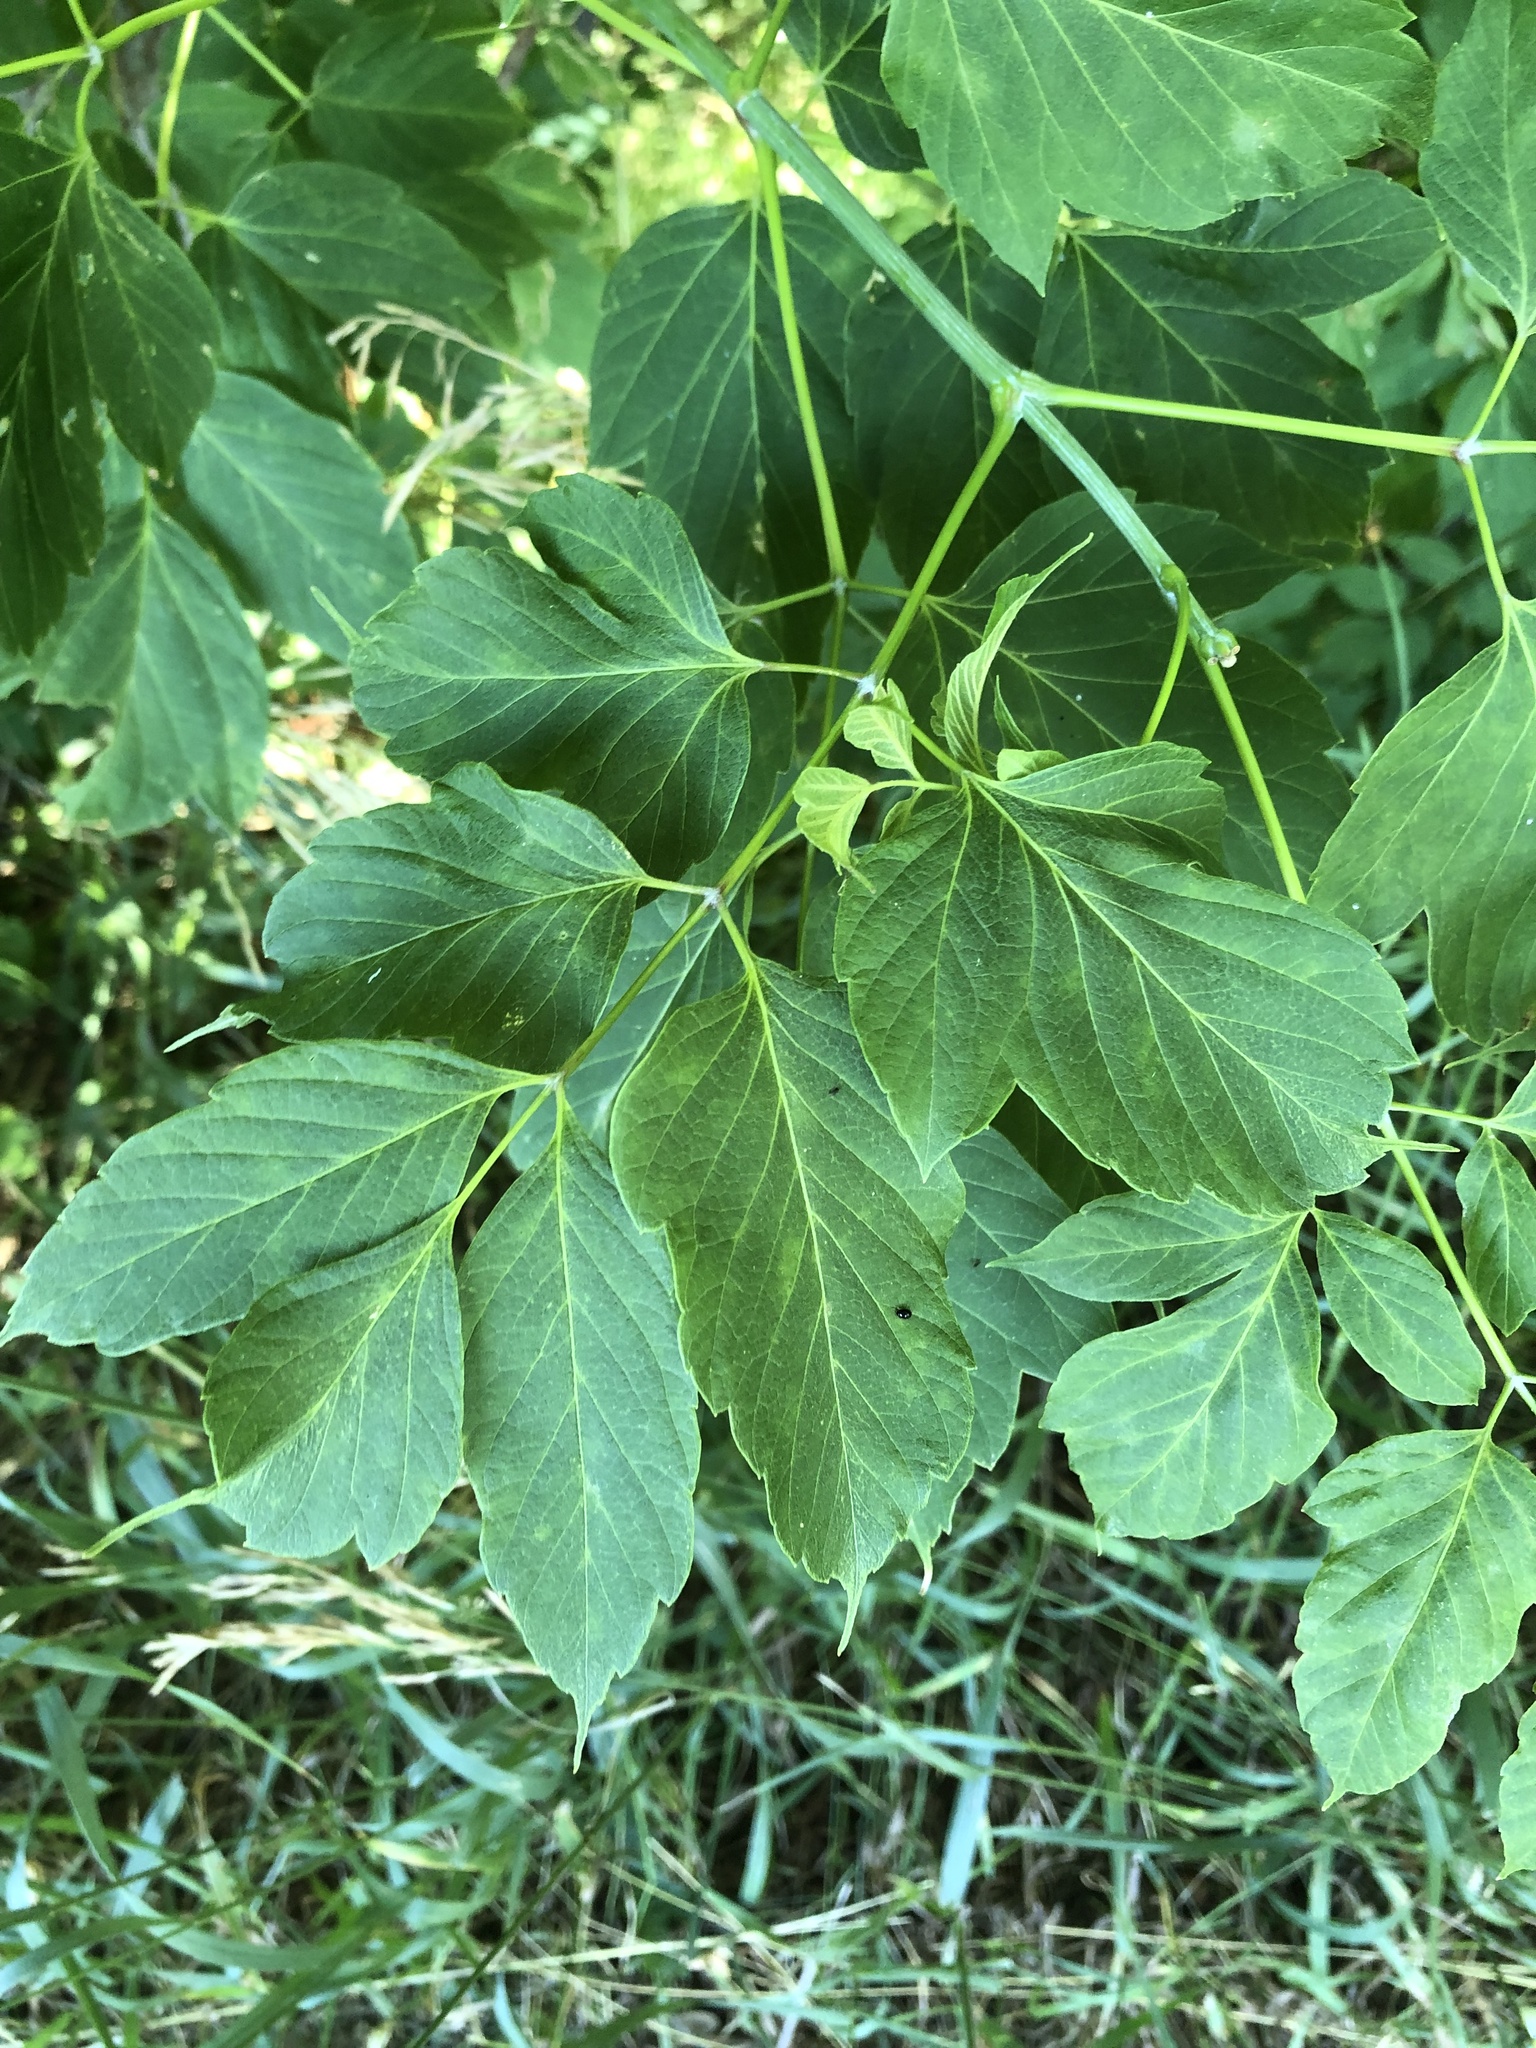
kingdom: Plantae
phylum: Tracheophyta
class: Magnoliopsida
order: Sapindales
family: Sapindaceae
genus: Acer
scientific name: Acer negundo
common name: Ashleaf maple
